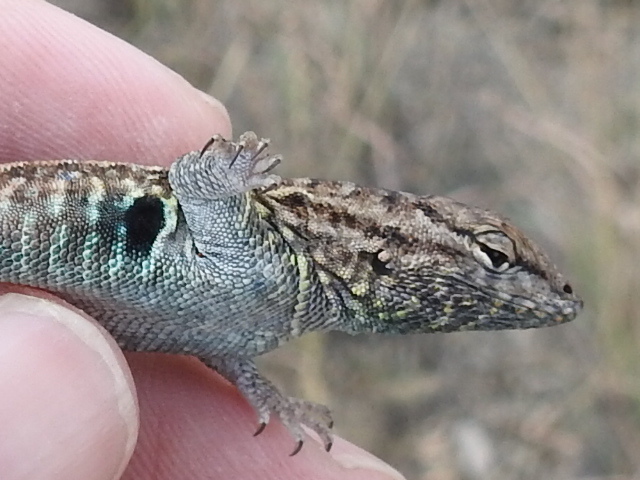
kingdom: Animalia
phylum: Chordata
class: Squamata
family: Phrynosomatidae
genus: Uta
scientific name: Uta stansburiana
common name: Side-blotched lizard
